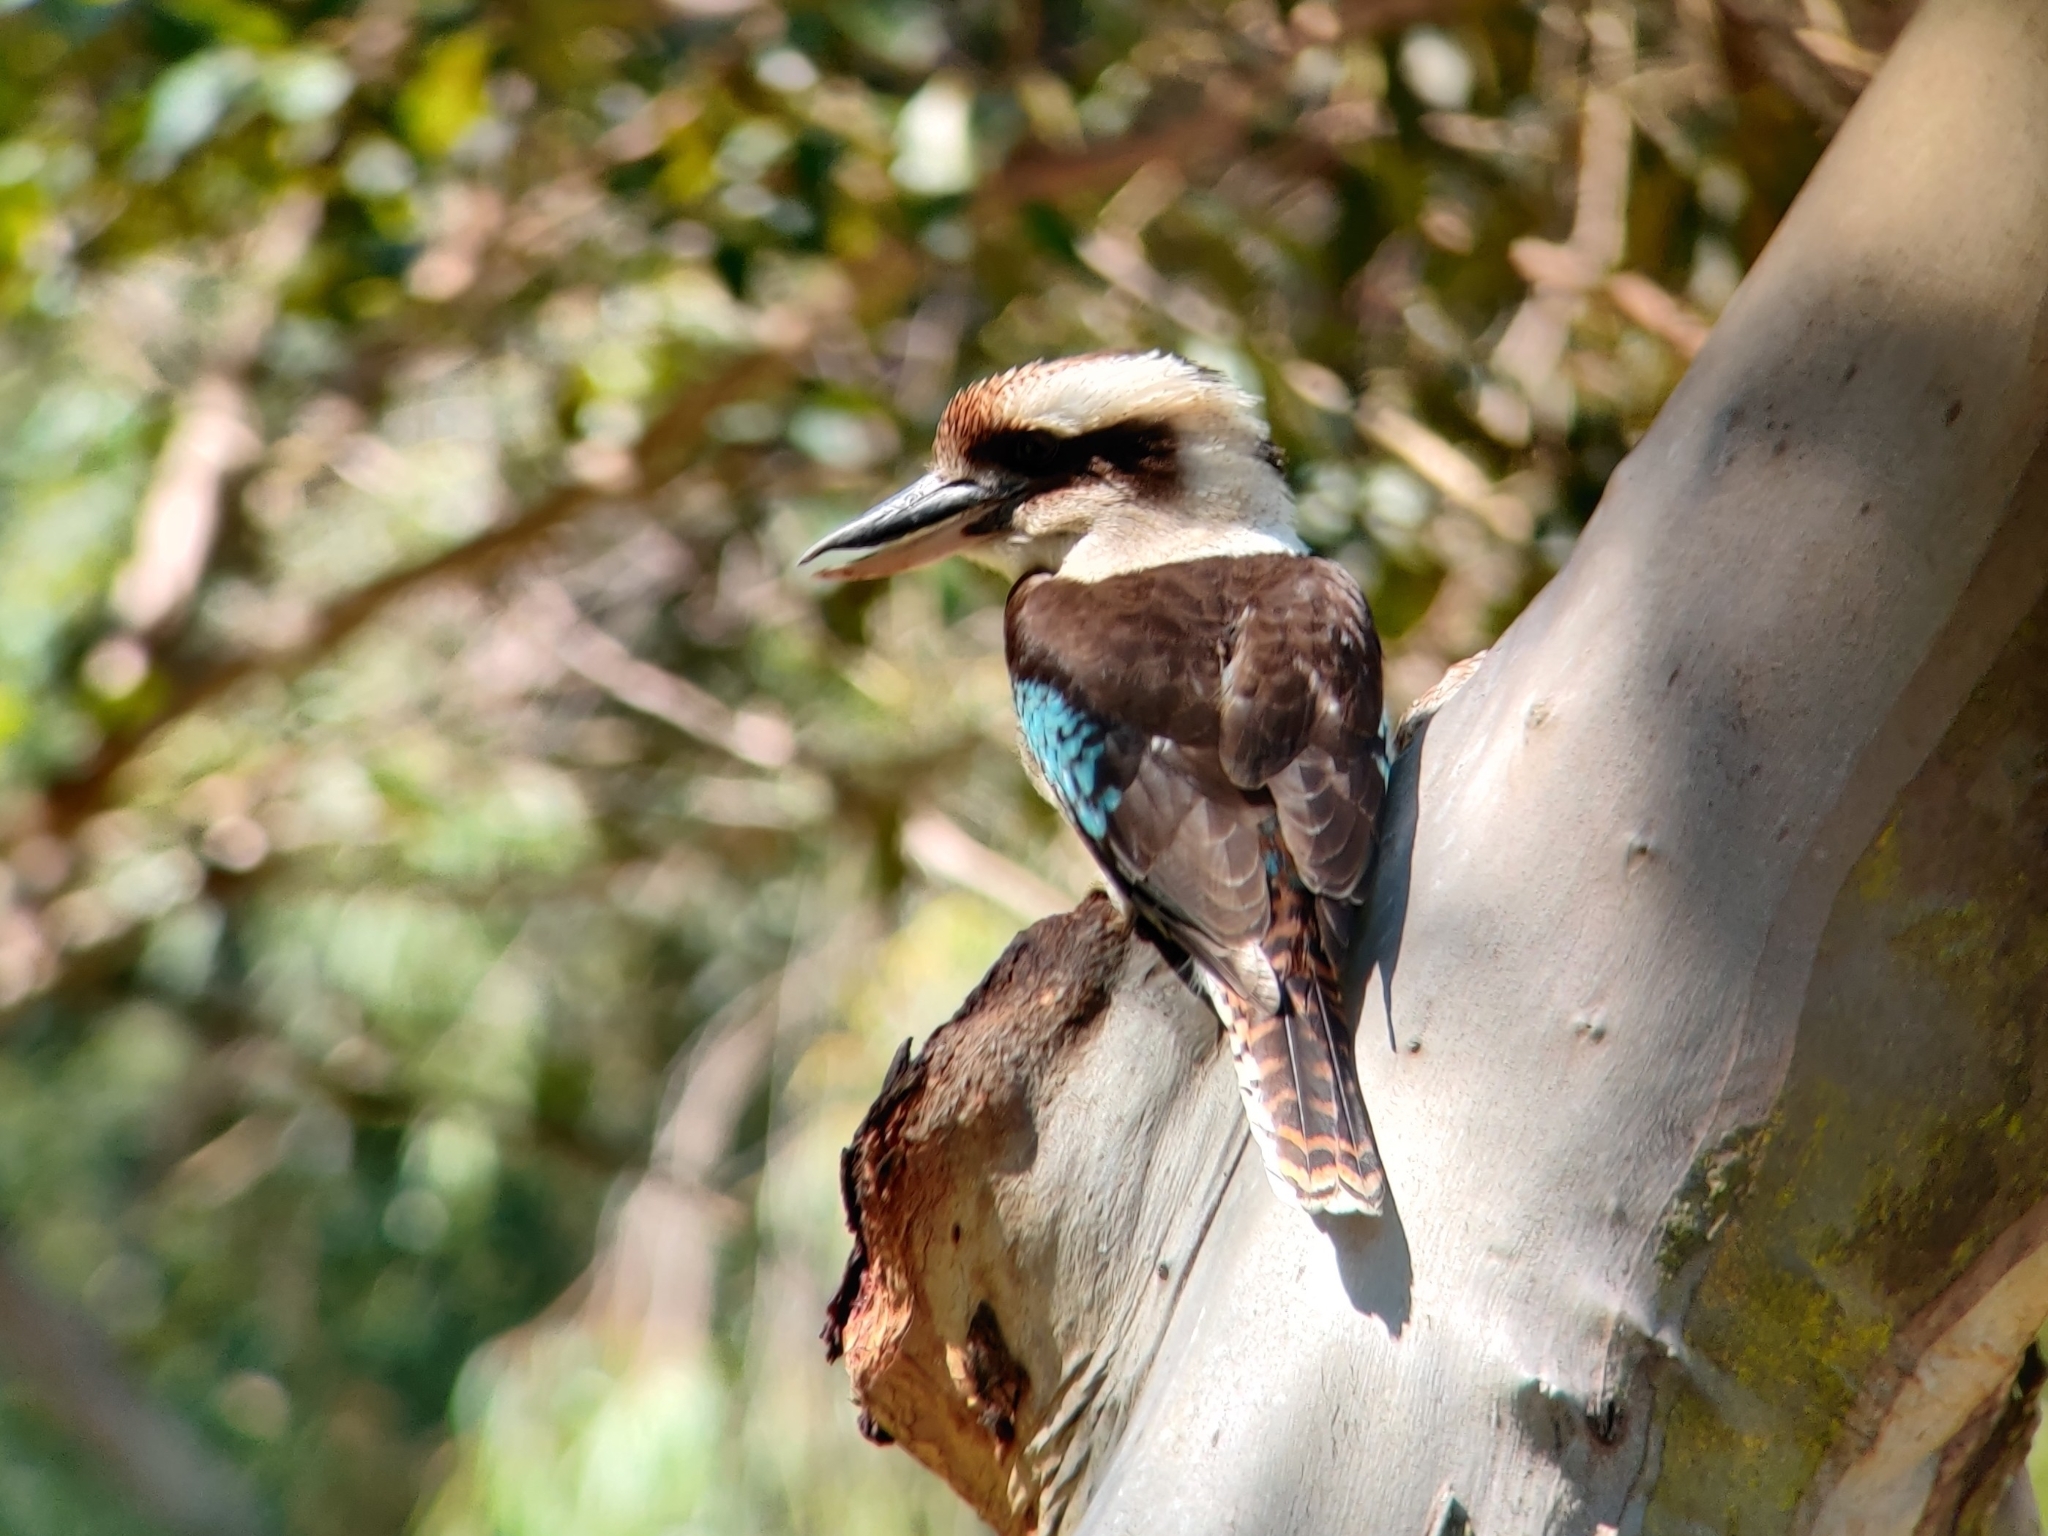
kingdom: Animalia
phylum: Chordata
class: Aves
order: Coraciiformes
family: Alcedinidae
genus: Dacelo
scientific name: Dacelo novaeguineae
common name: Laughing kookaburra
